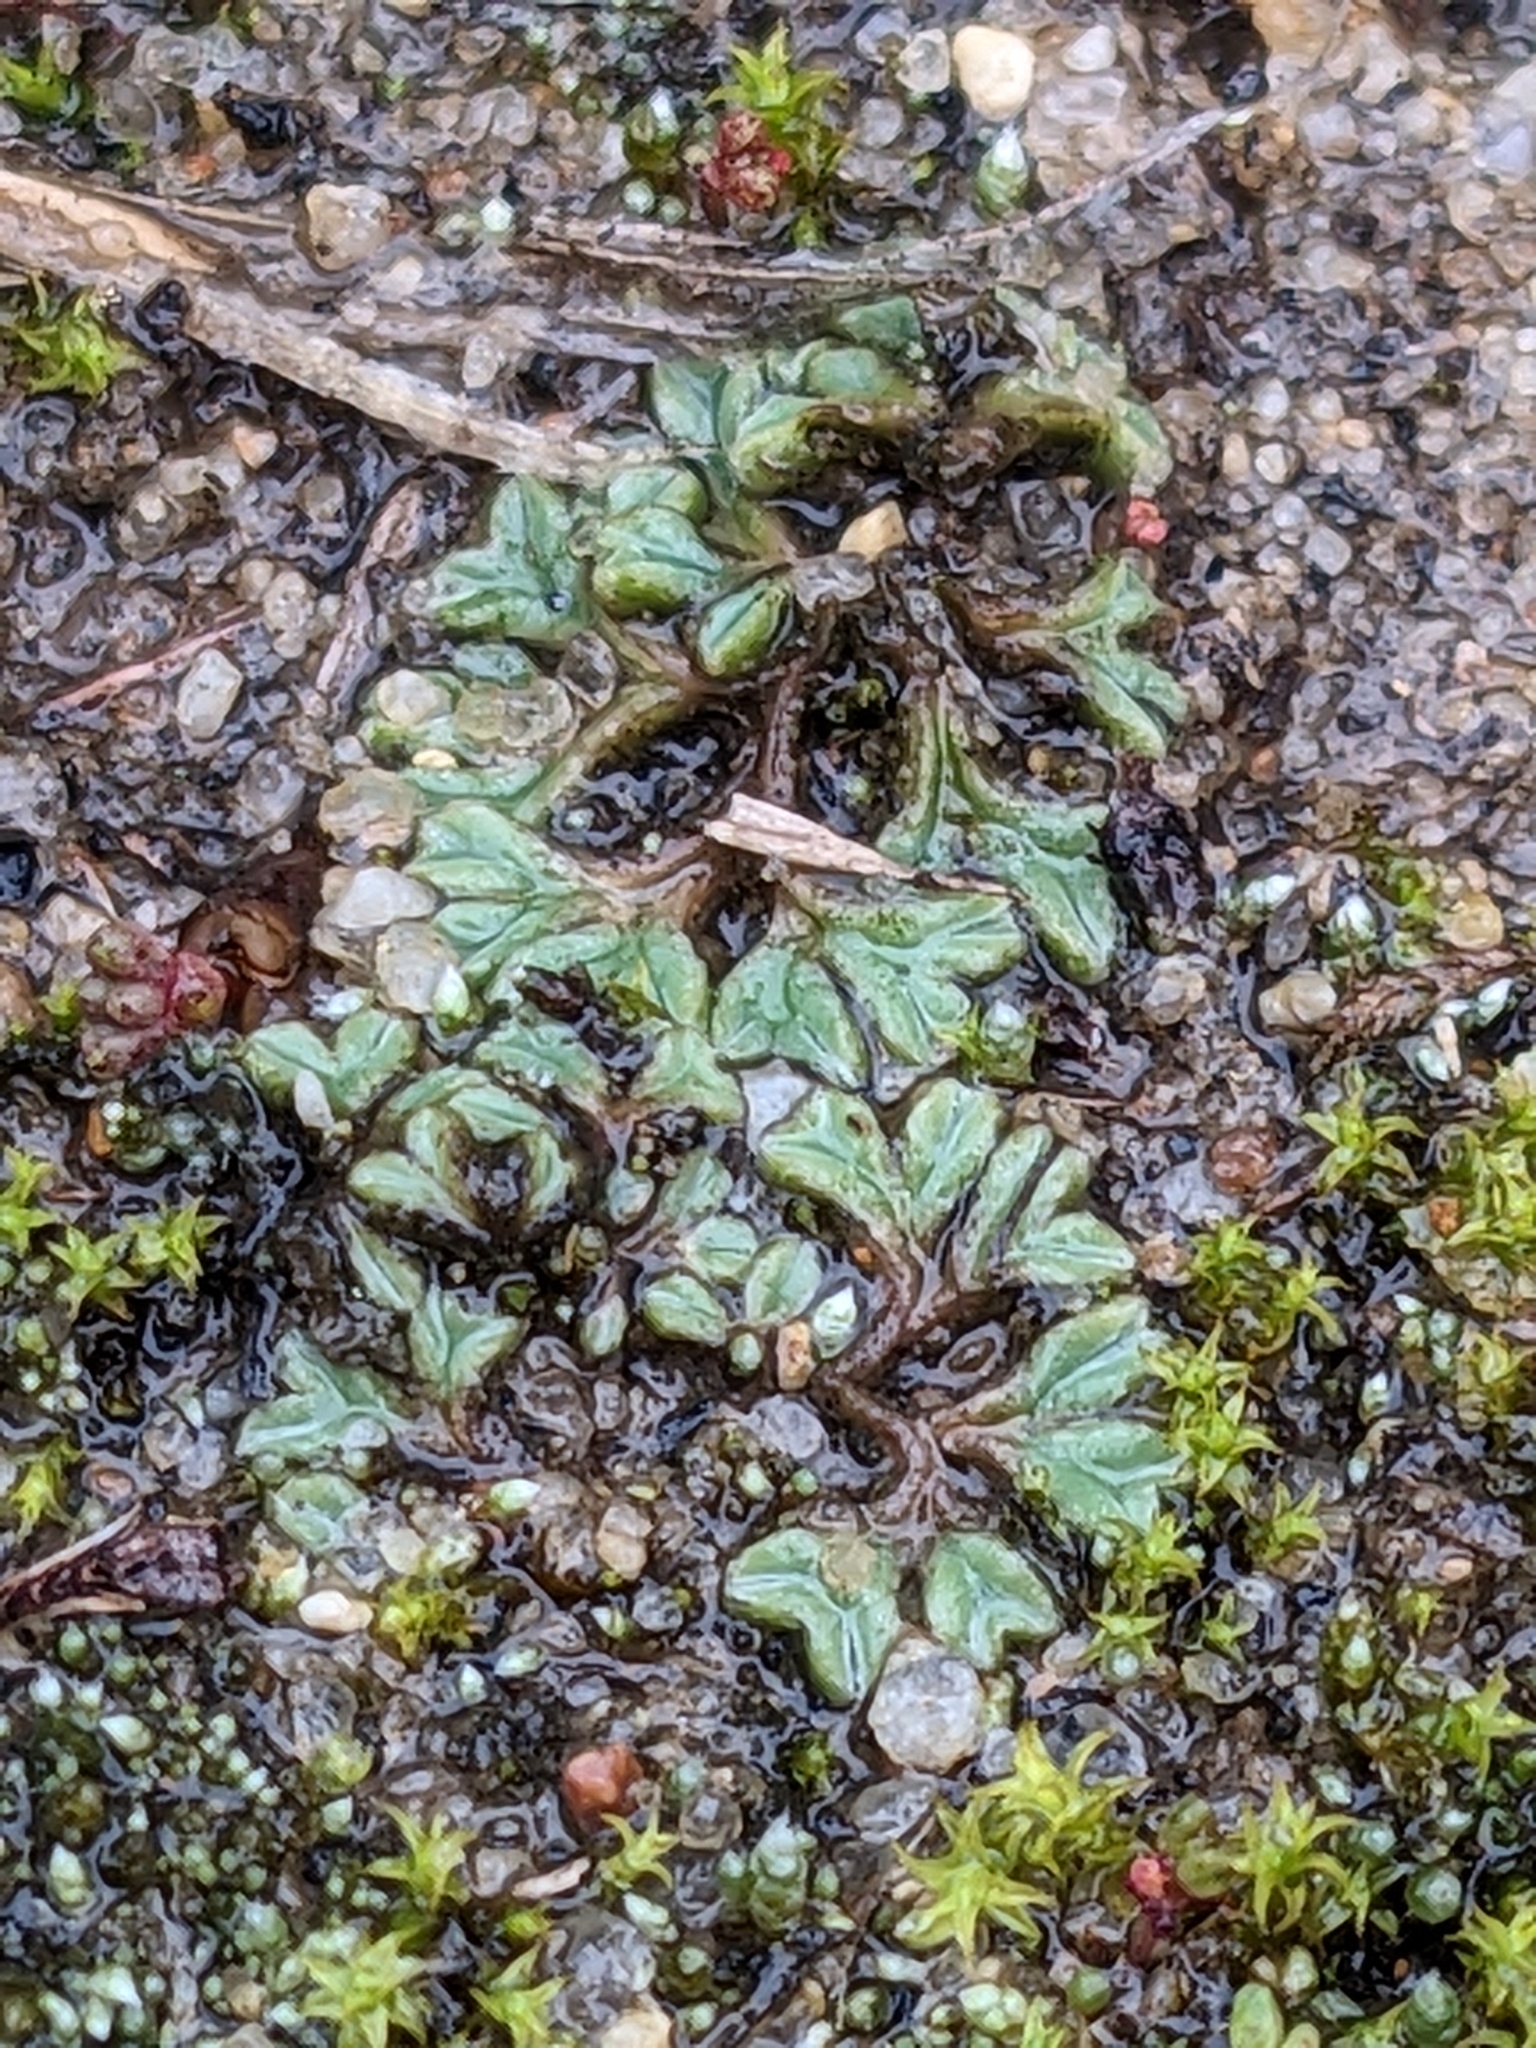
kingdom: Plantae
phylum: Marchantiophyta
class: Marchantiopsida
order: Marchantiales
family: Ricciaceae
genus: Riccia
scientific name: Riccia sorocarpa
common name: Common crystalwort
